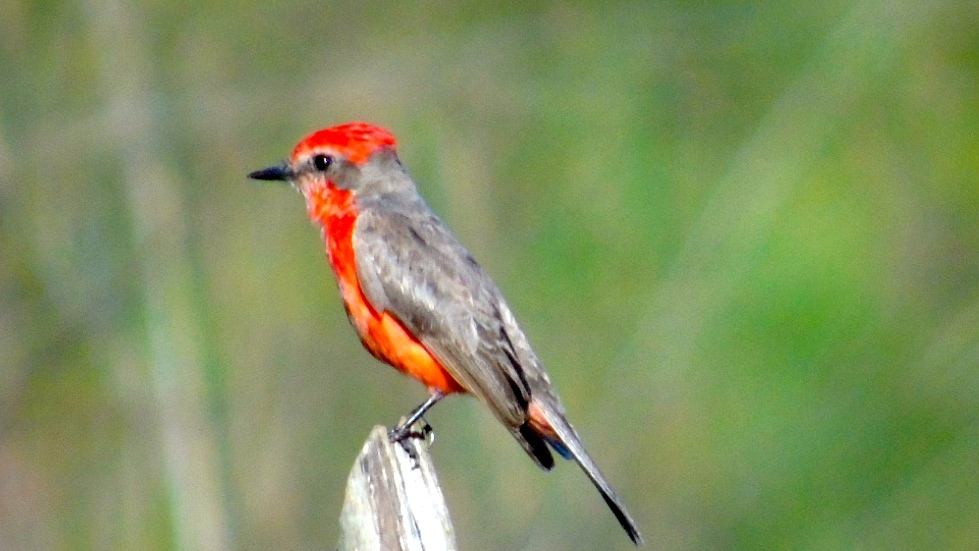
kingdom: Animalia
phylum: Chordata
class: Aves
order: Passeriformes
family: Tyrannidae
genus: Pyrocephalus
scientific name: Pyrocephalus rubinus
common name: Vermilion flycatcher
